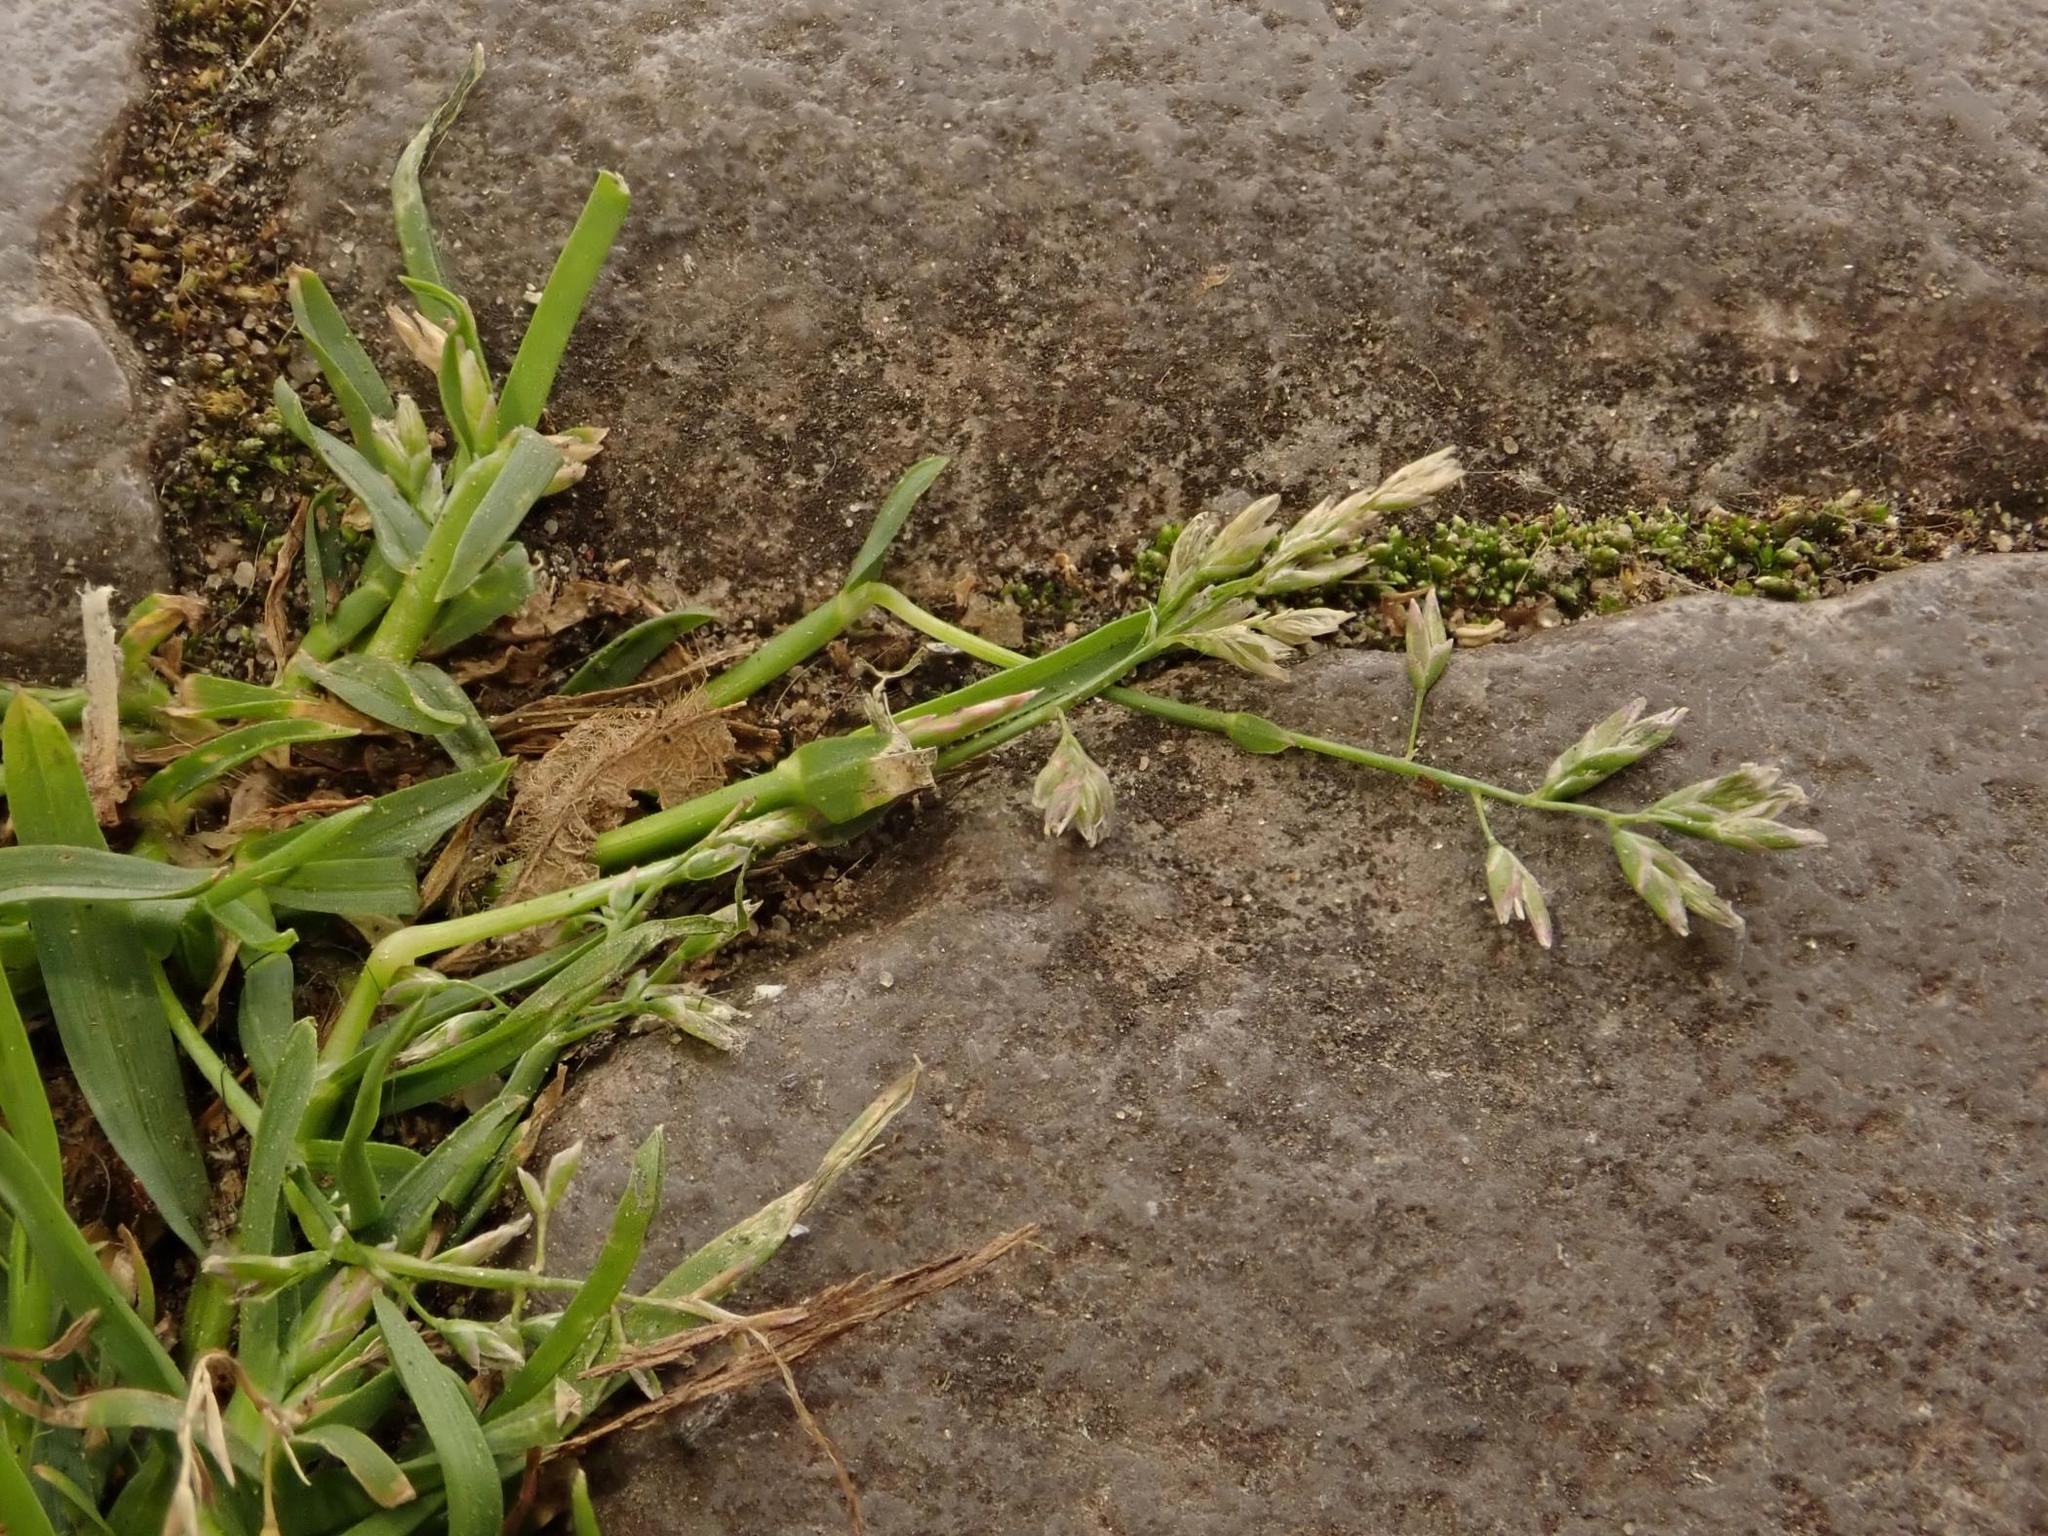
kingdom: Plantae
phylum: Tracheophyta
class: Liliopsida
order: Poales
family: Poaceae
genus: Poa
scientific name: Poa annua
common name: Annual bluegrass
